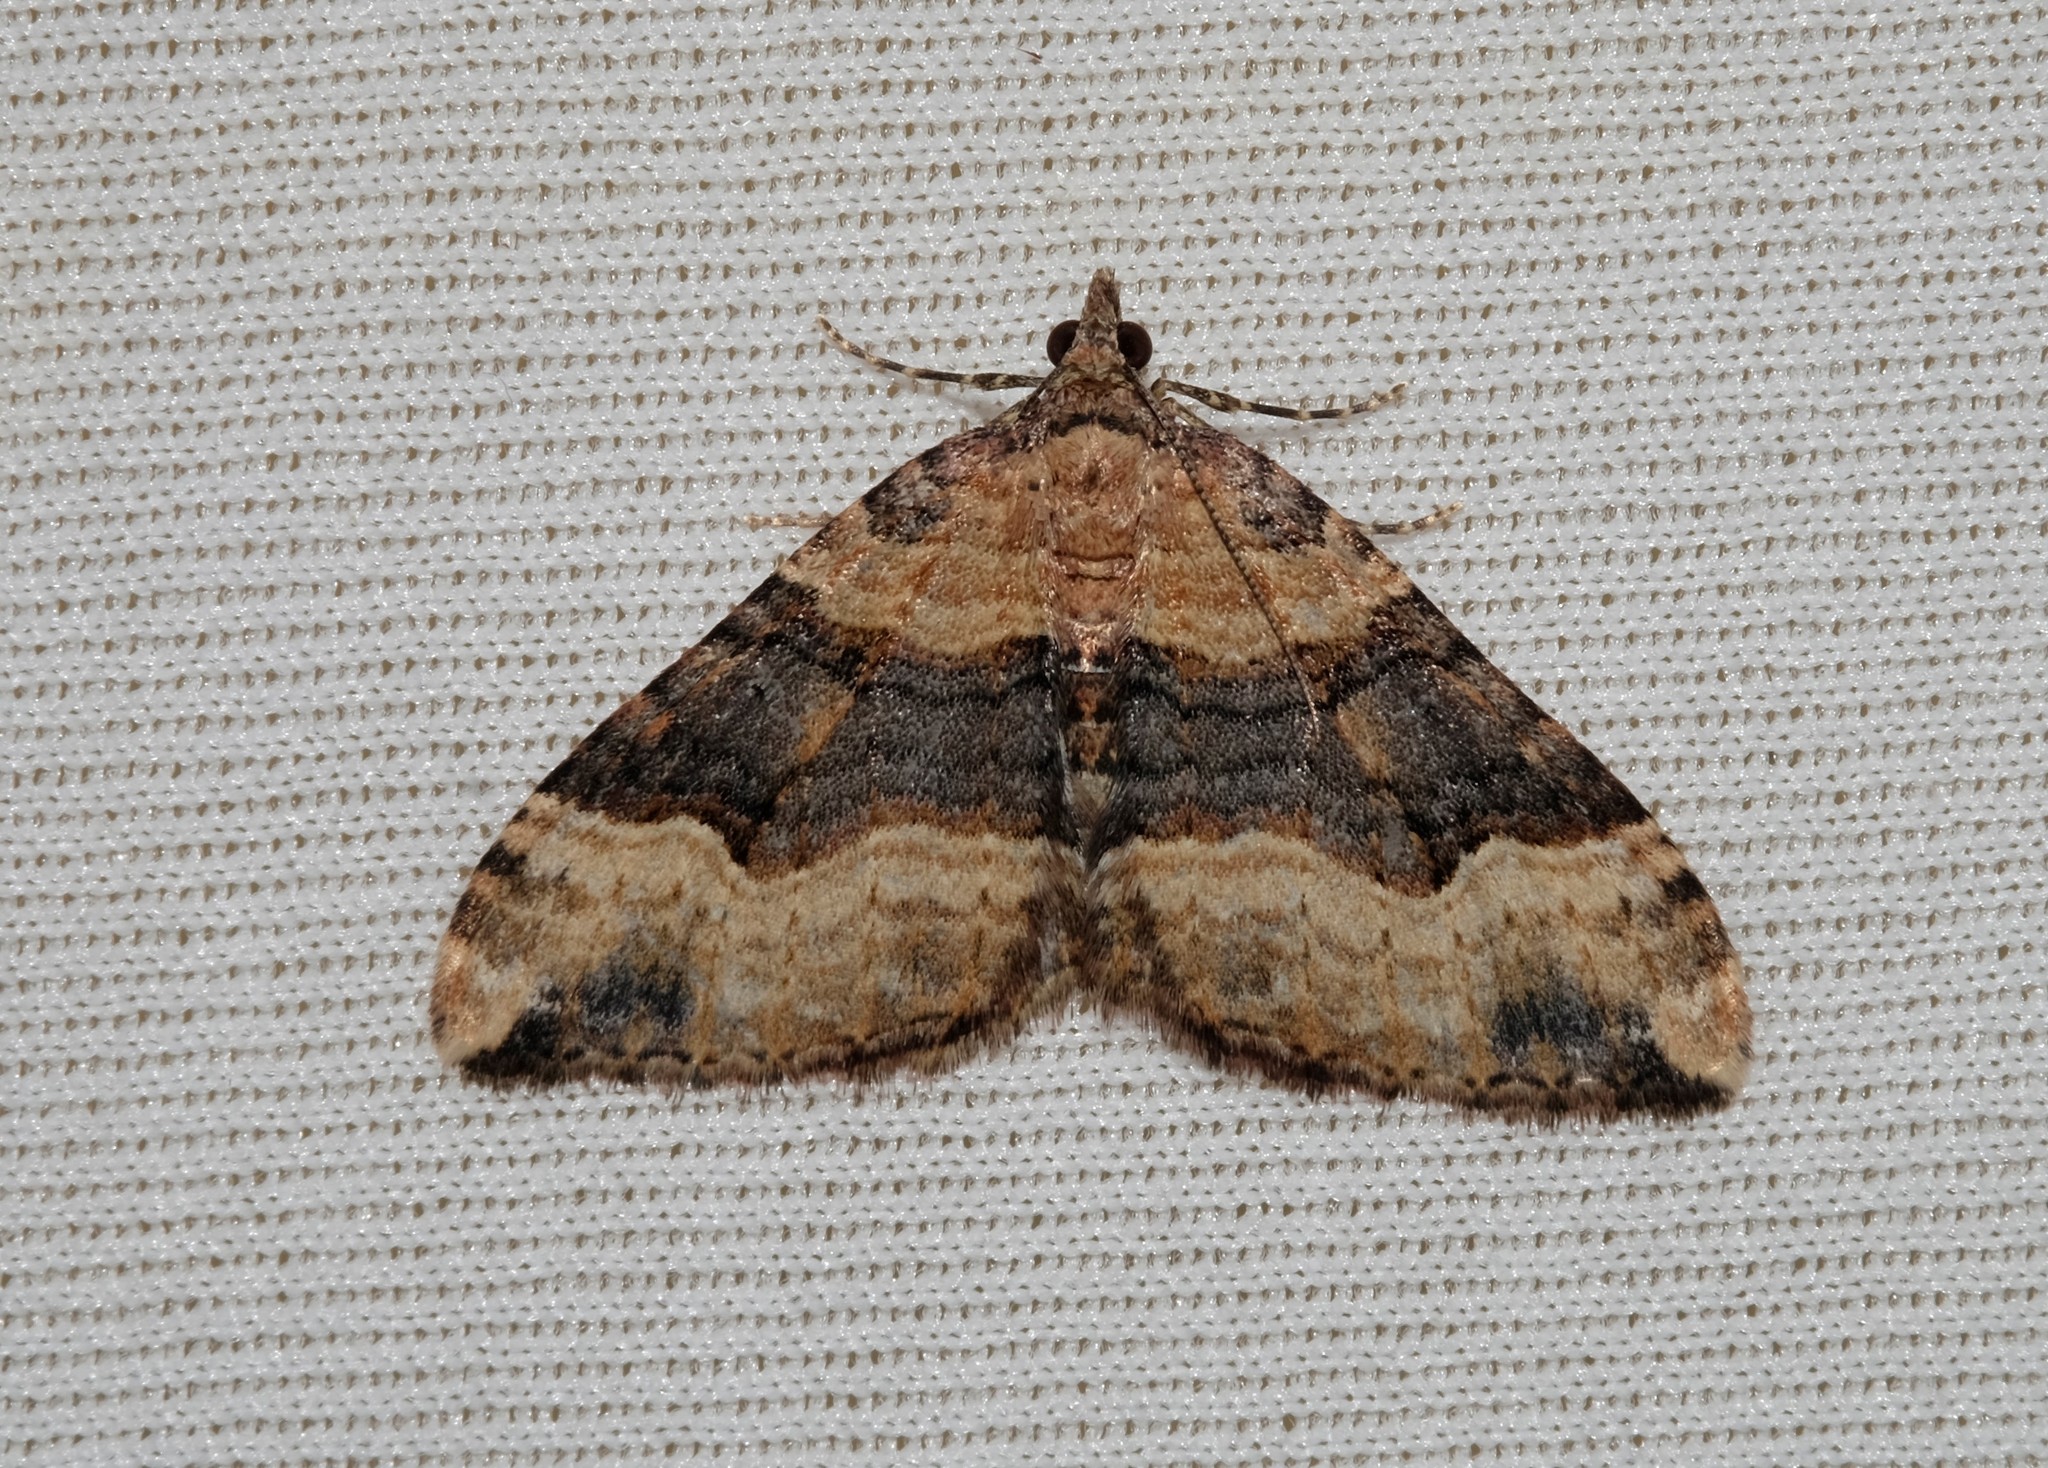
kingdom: Animalia
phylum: Arthropoda
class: Insecta
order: Lepidoptera
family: Geometridae
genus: Epyaxa
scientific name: Epyaxa subidaria
